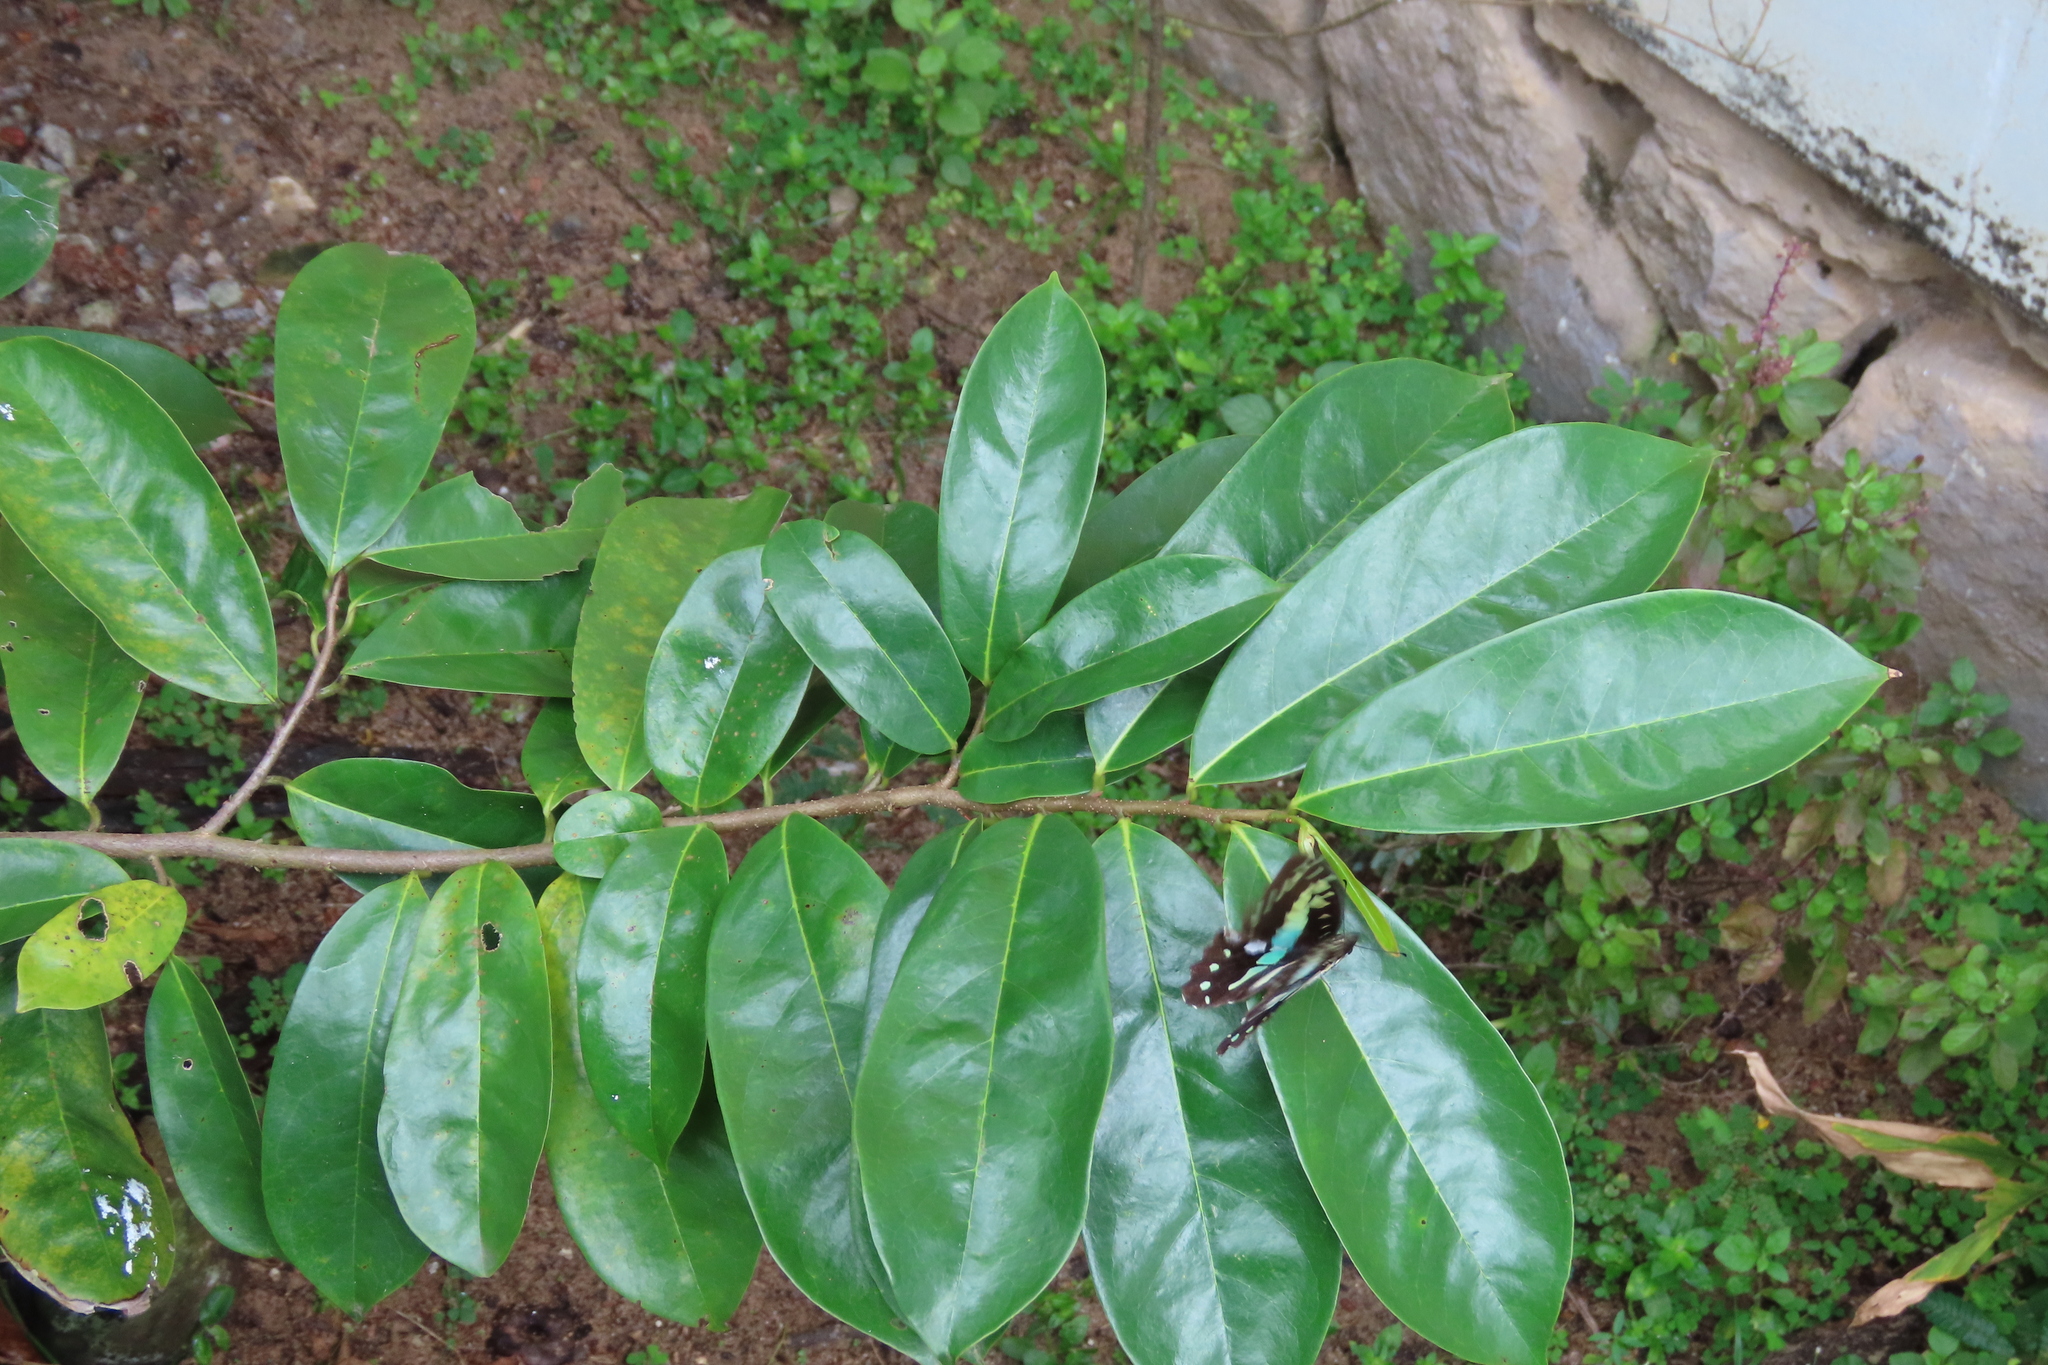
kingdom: Animalia
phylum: Arthropoda
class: Insecta
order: Lepidoptera
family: Papilionidae
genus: Graphium
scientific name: Graphium doson
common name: Common jay
